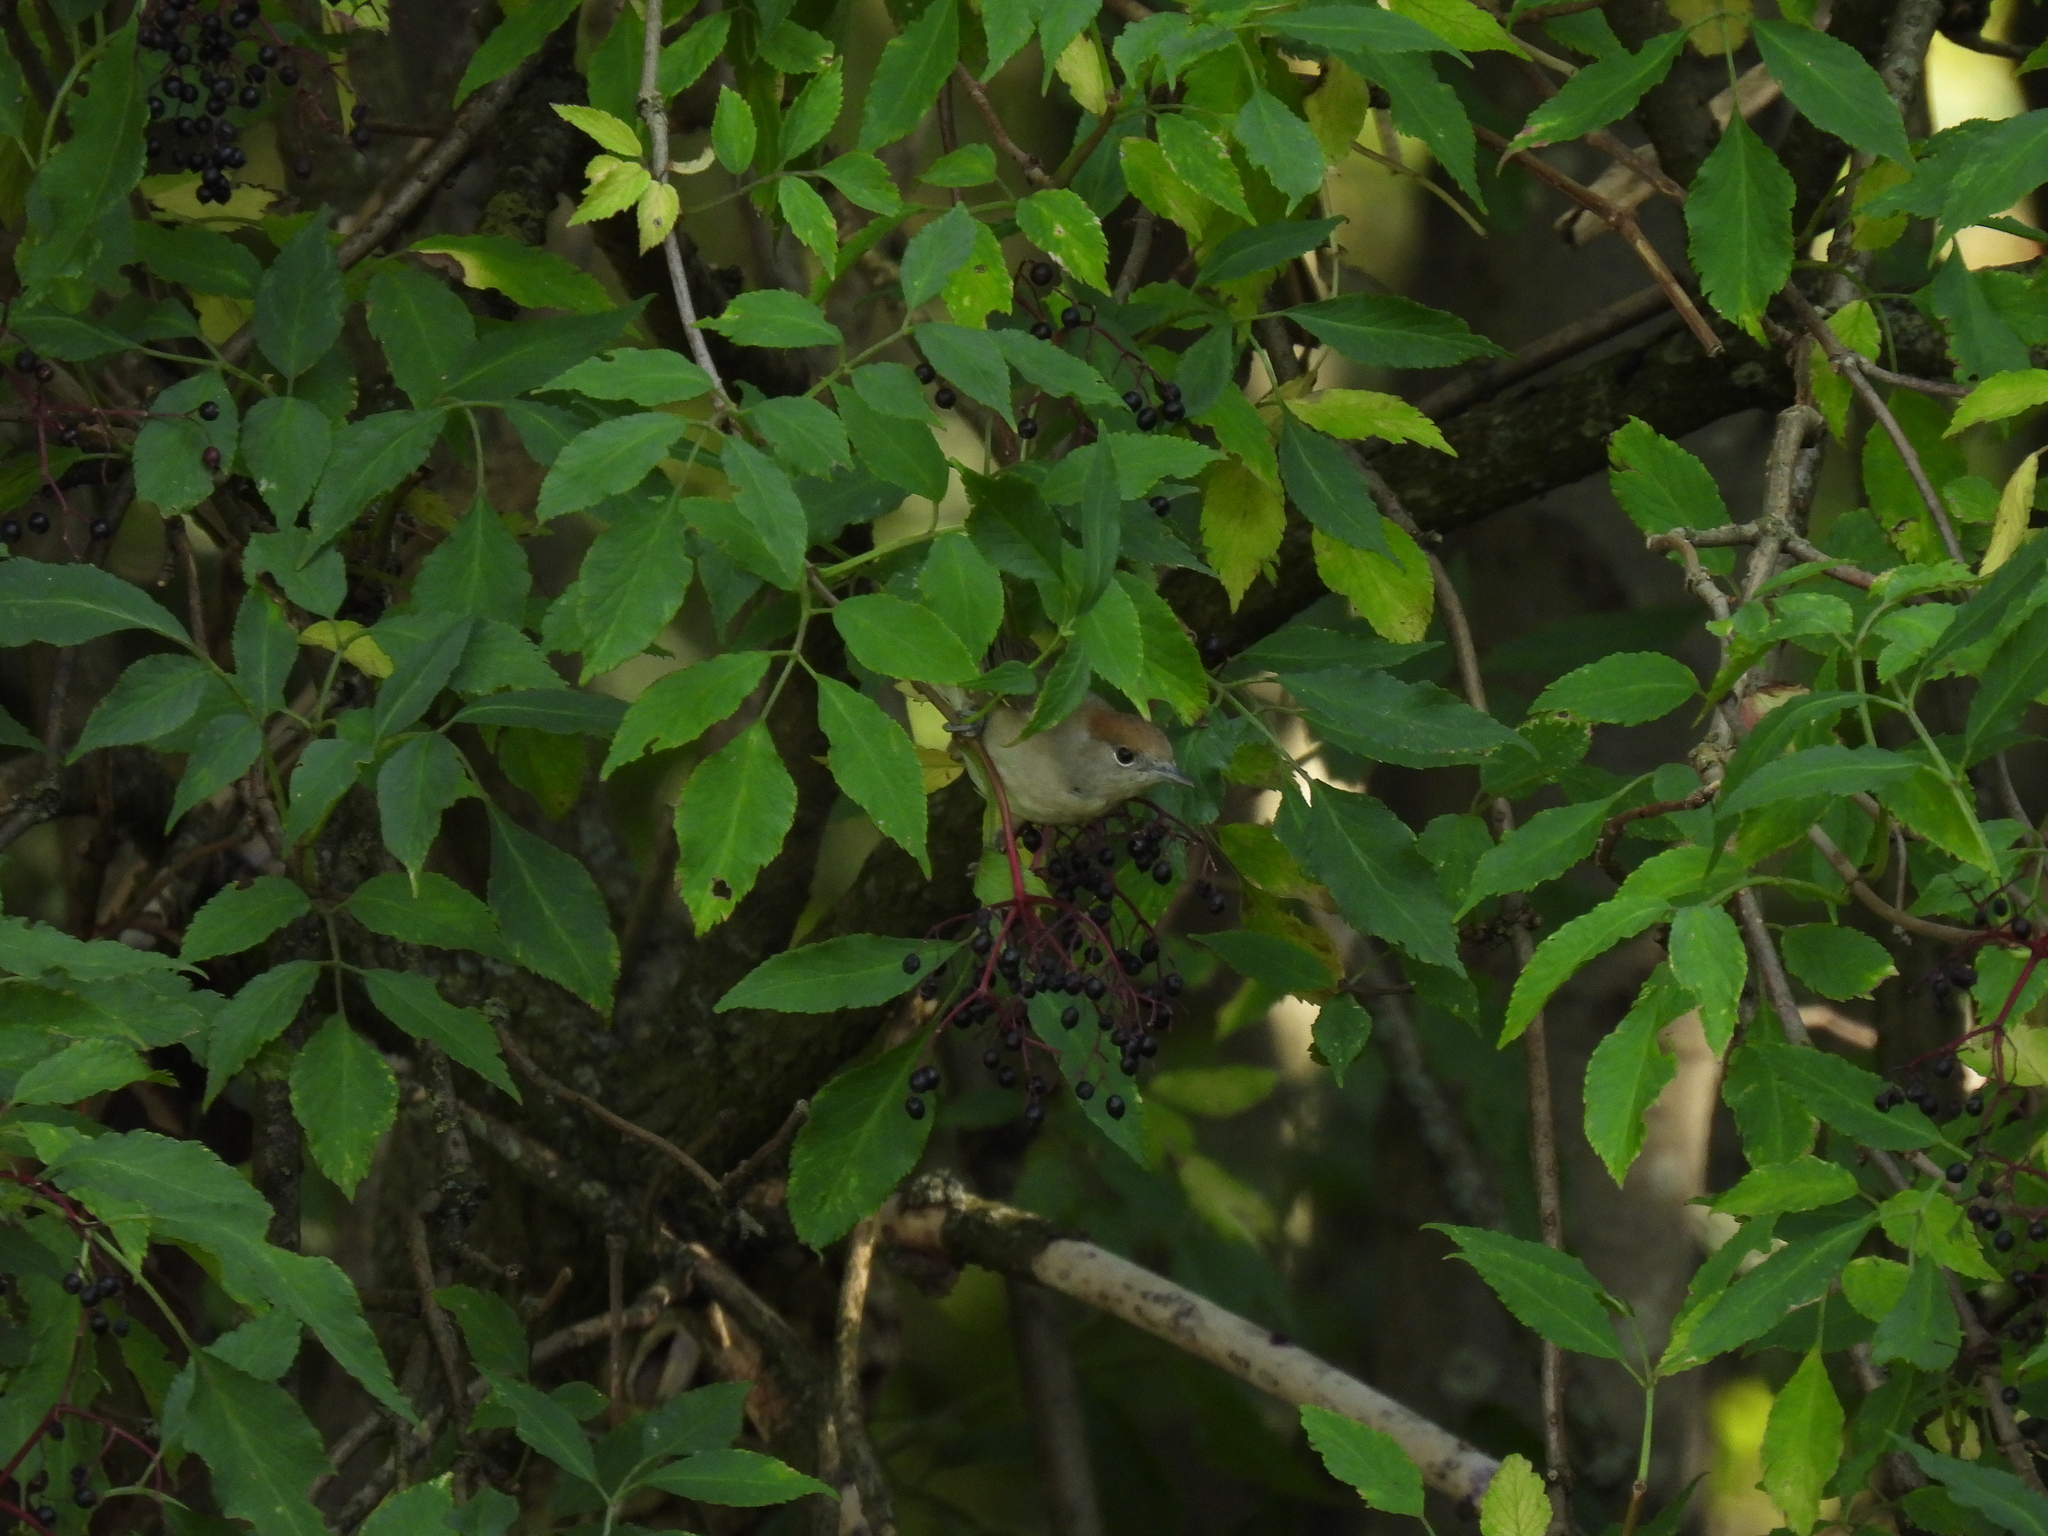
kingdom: Animalia
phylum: Chordata
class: Aves
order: Passeriformes
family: Sylviidae
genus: Sylvia
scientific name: Sylvia atricapilla
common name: Eurasian blackcap
